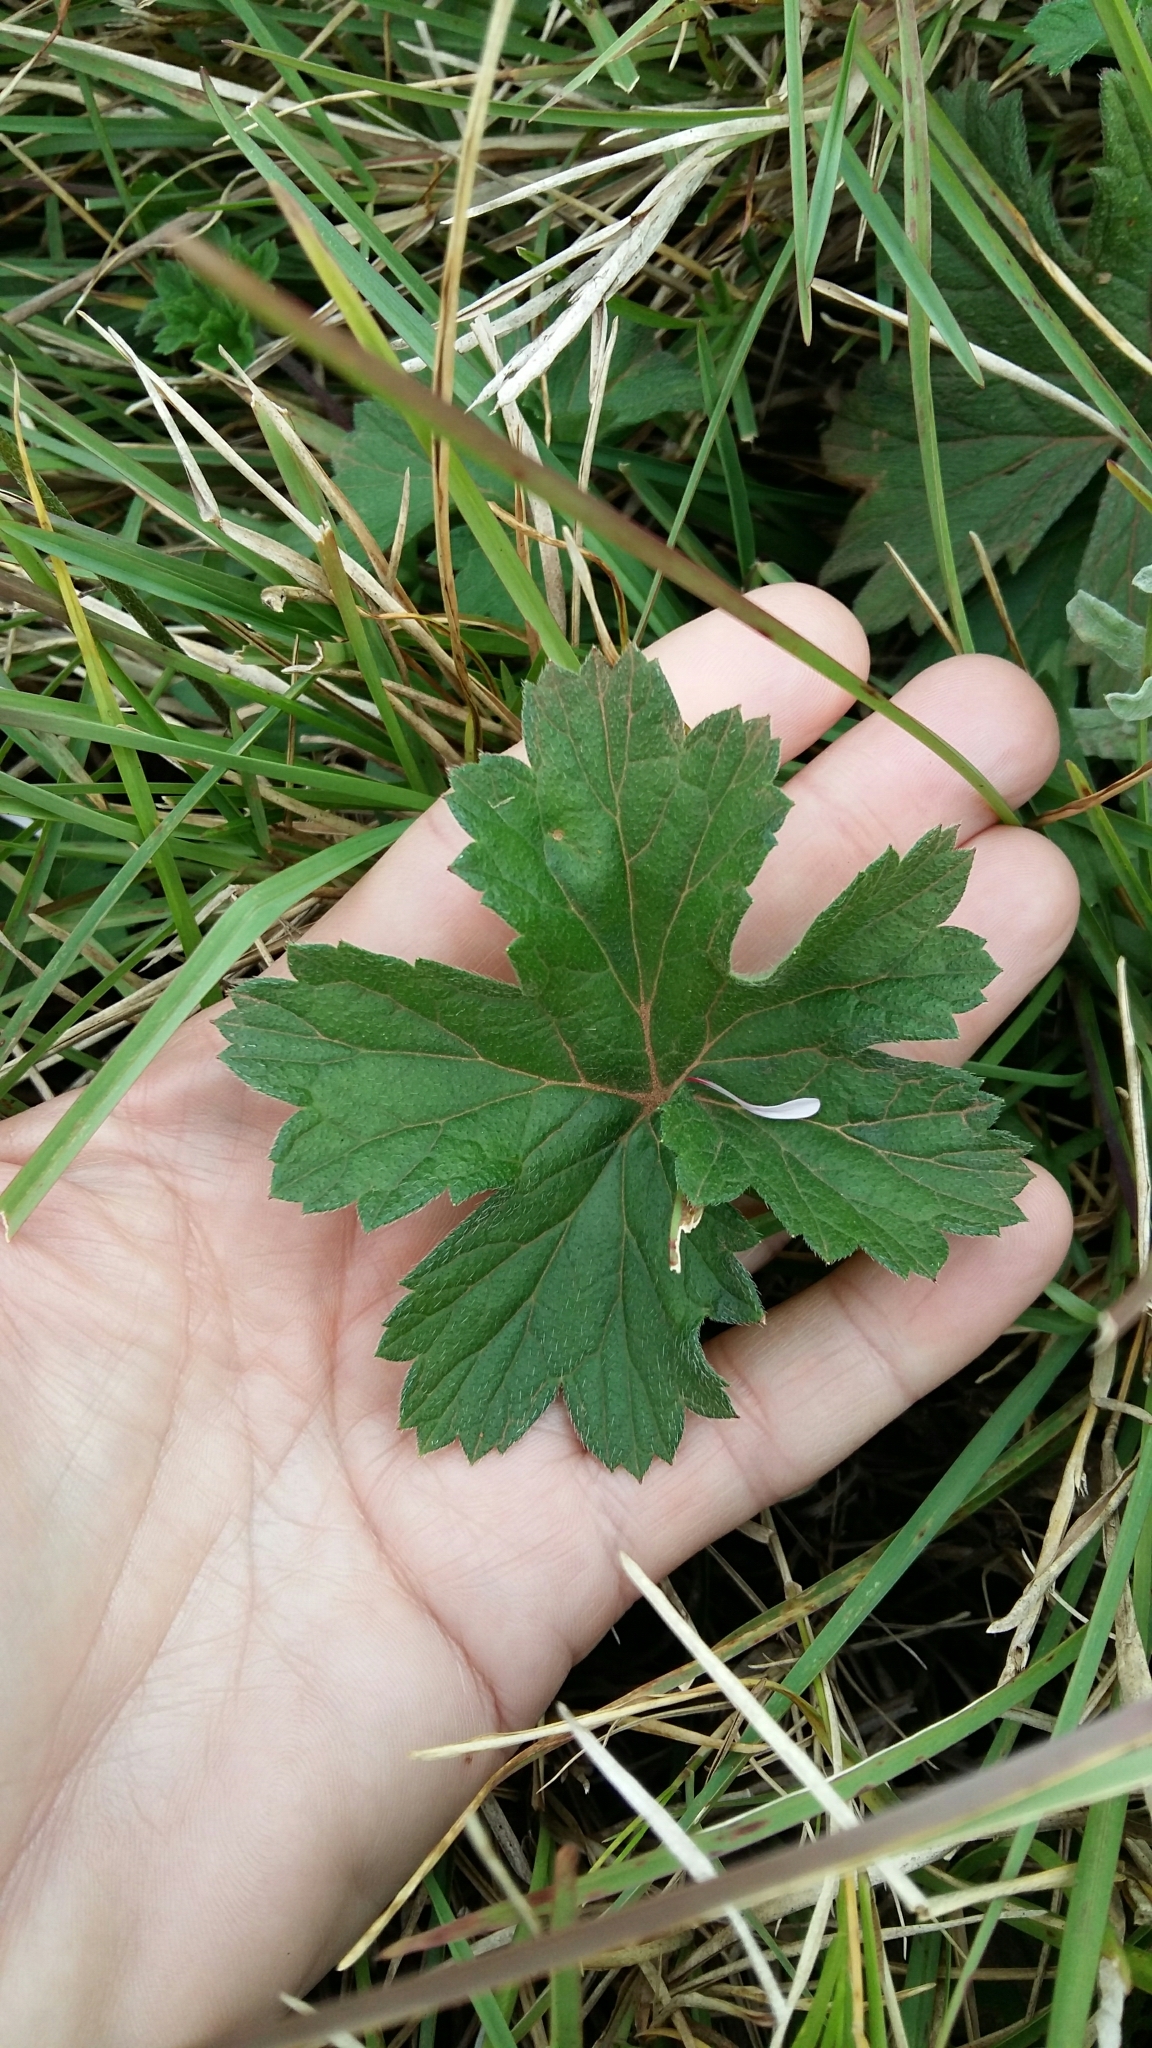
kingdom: Plantae
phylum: Tracheophyta
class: Magnoliopsida
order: Geraniales
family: Geraniaceae
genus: Pelargonium
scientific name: Pelargonium alchemilloides
